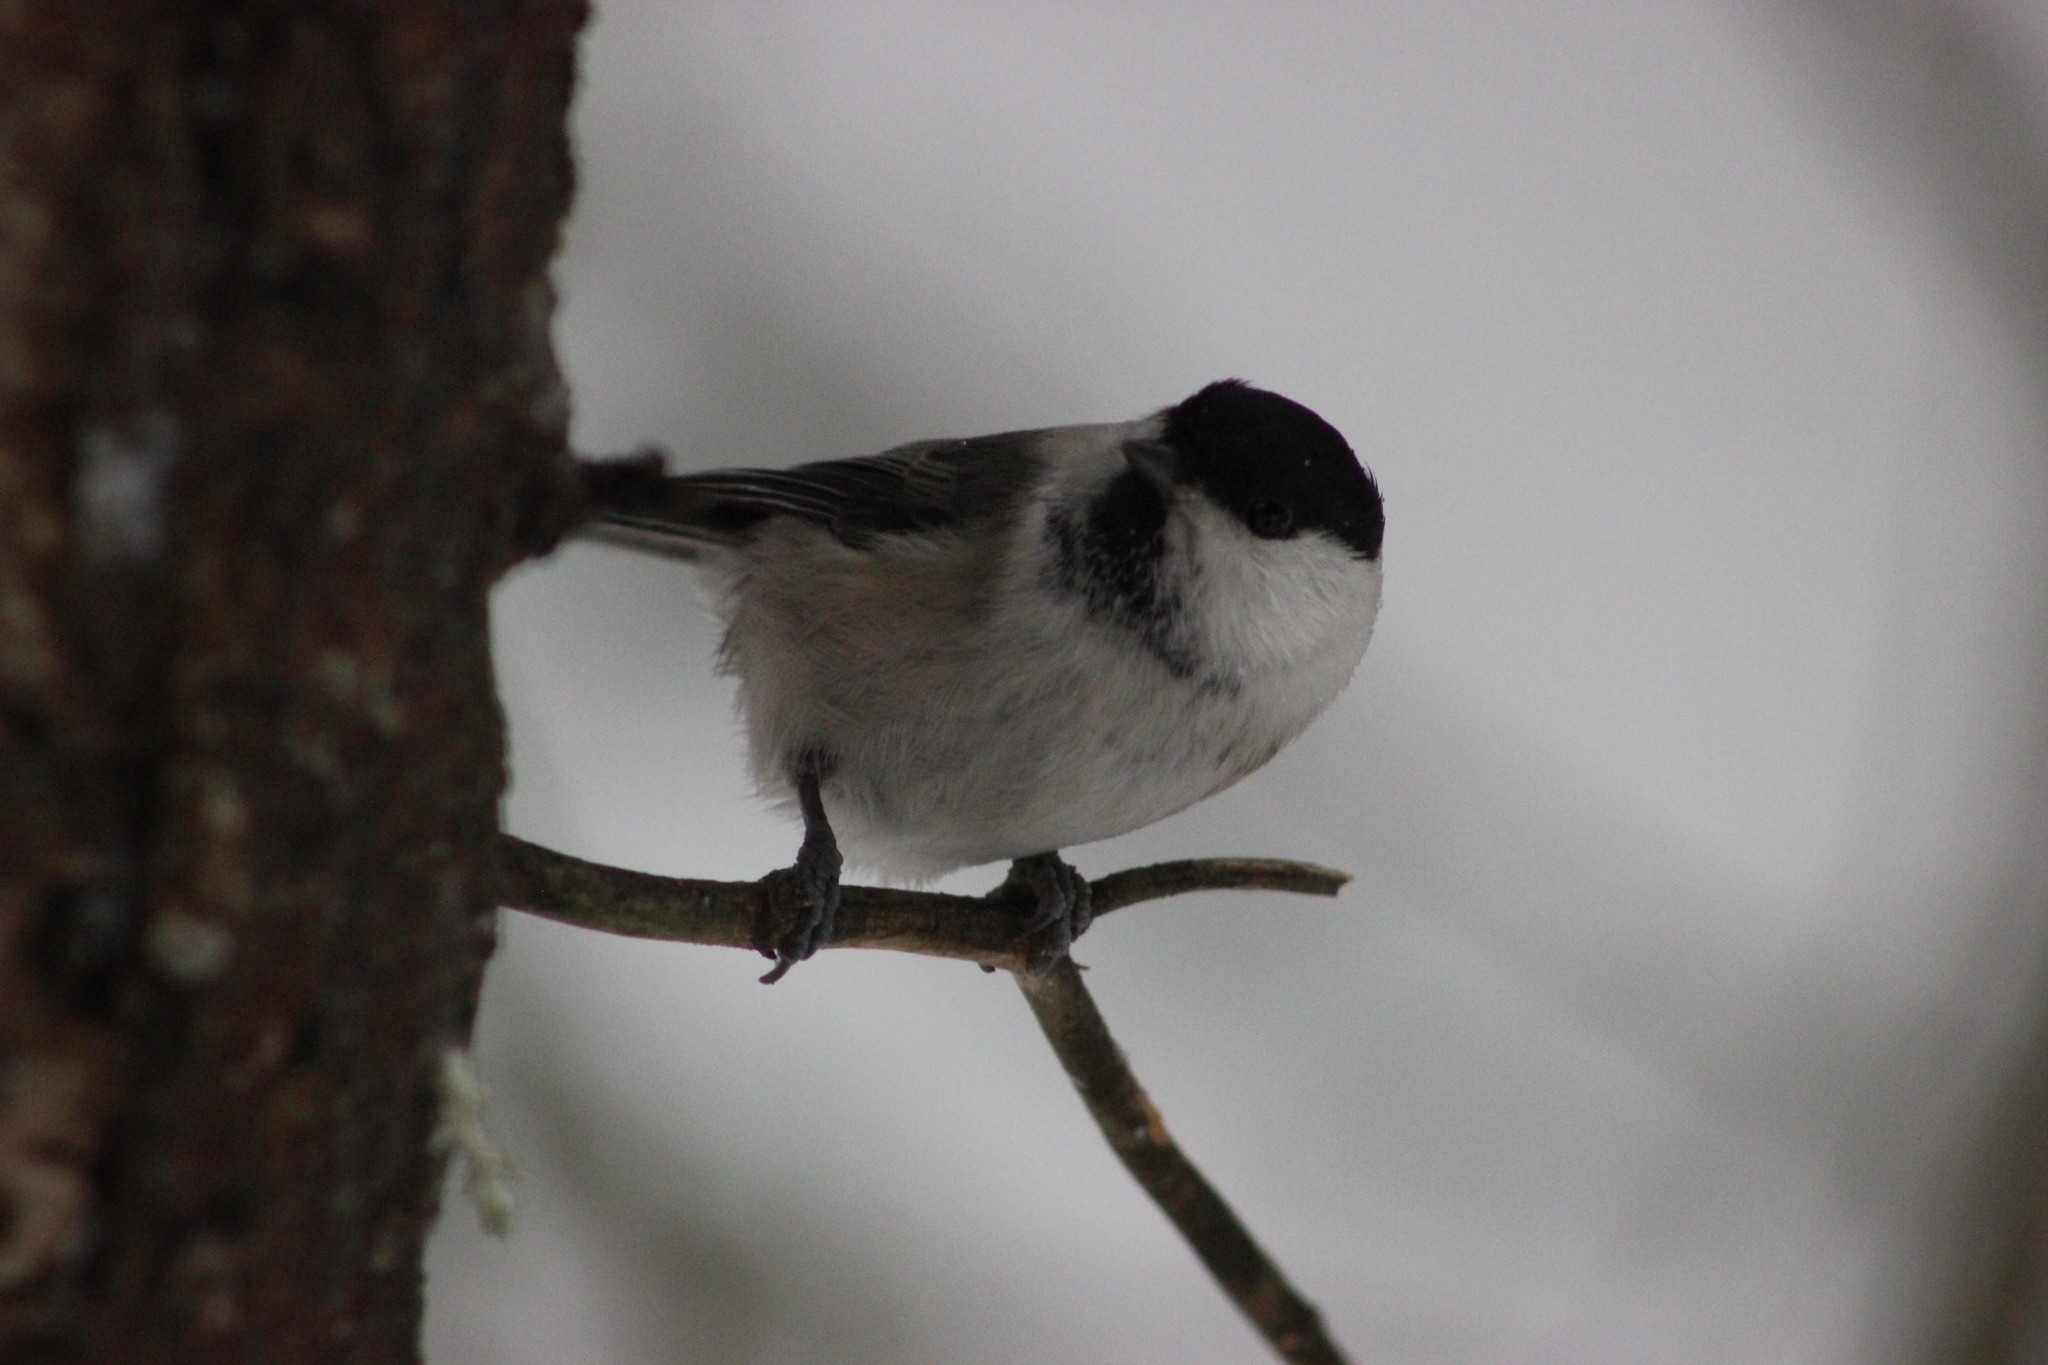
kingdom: Animalia
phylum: Chordata
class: Aves
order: Passeriformes
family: Paridae
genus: Poecile
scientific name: Poecile montanus
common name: Willow tit
